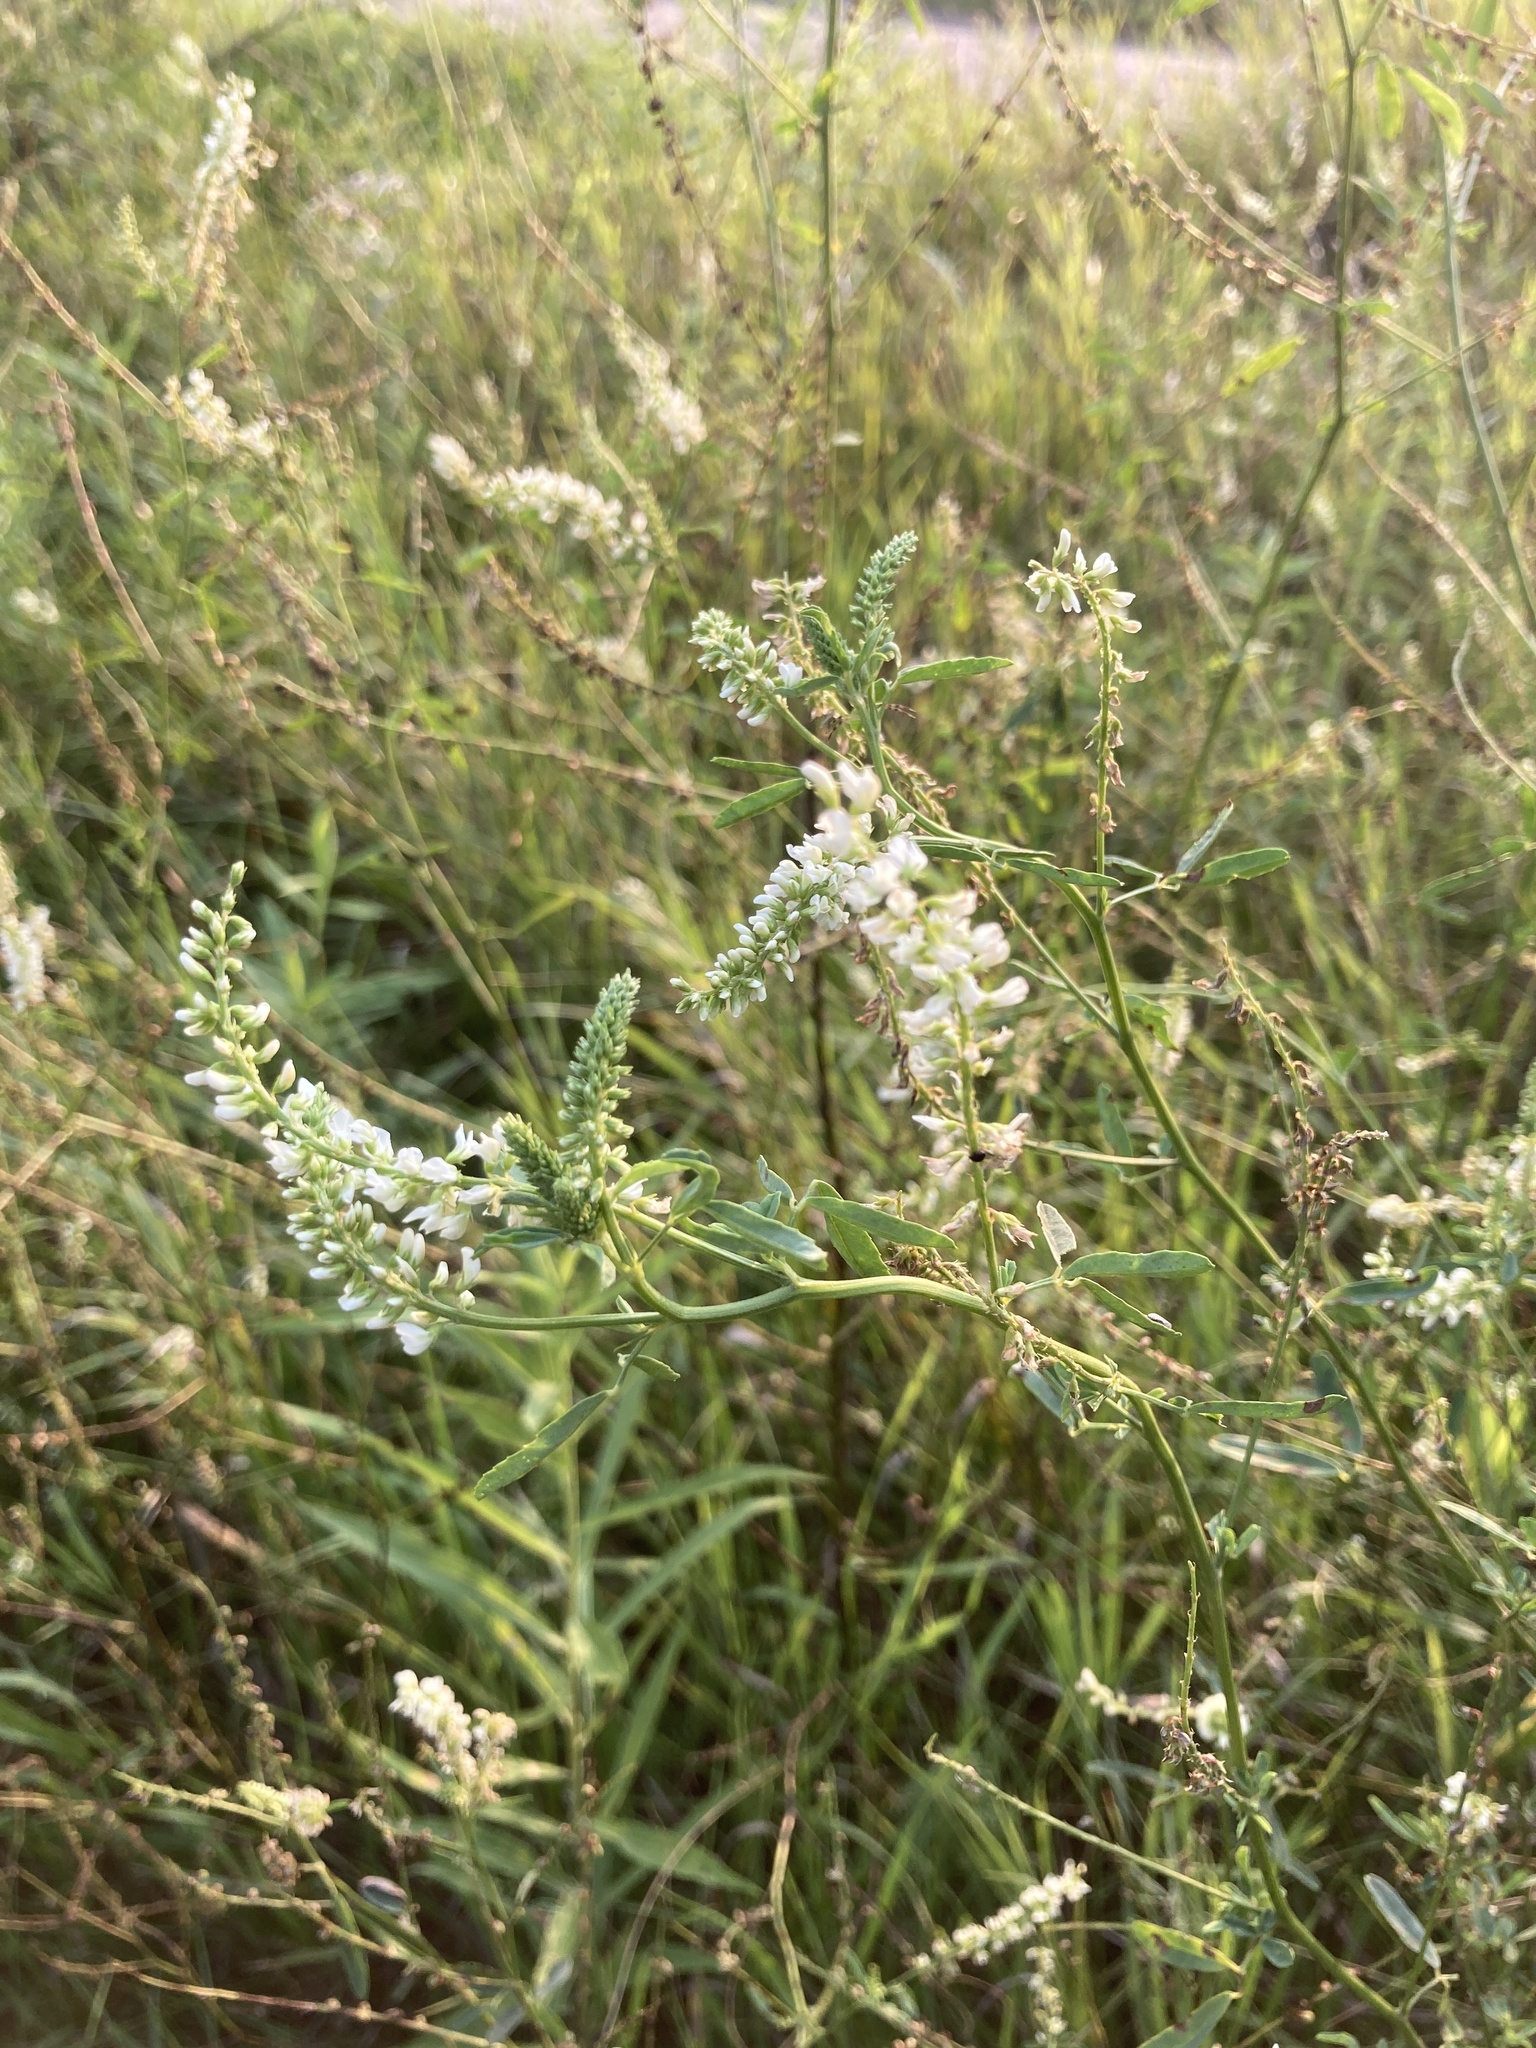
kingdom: Plantae
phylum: Tracheophyta
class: Magnoliopsida
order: Fabales
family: Fabaceae
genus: Melilotus
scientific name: Melilotus albus
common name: White melilot
